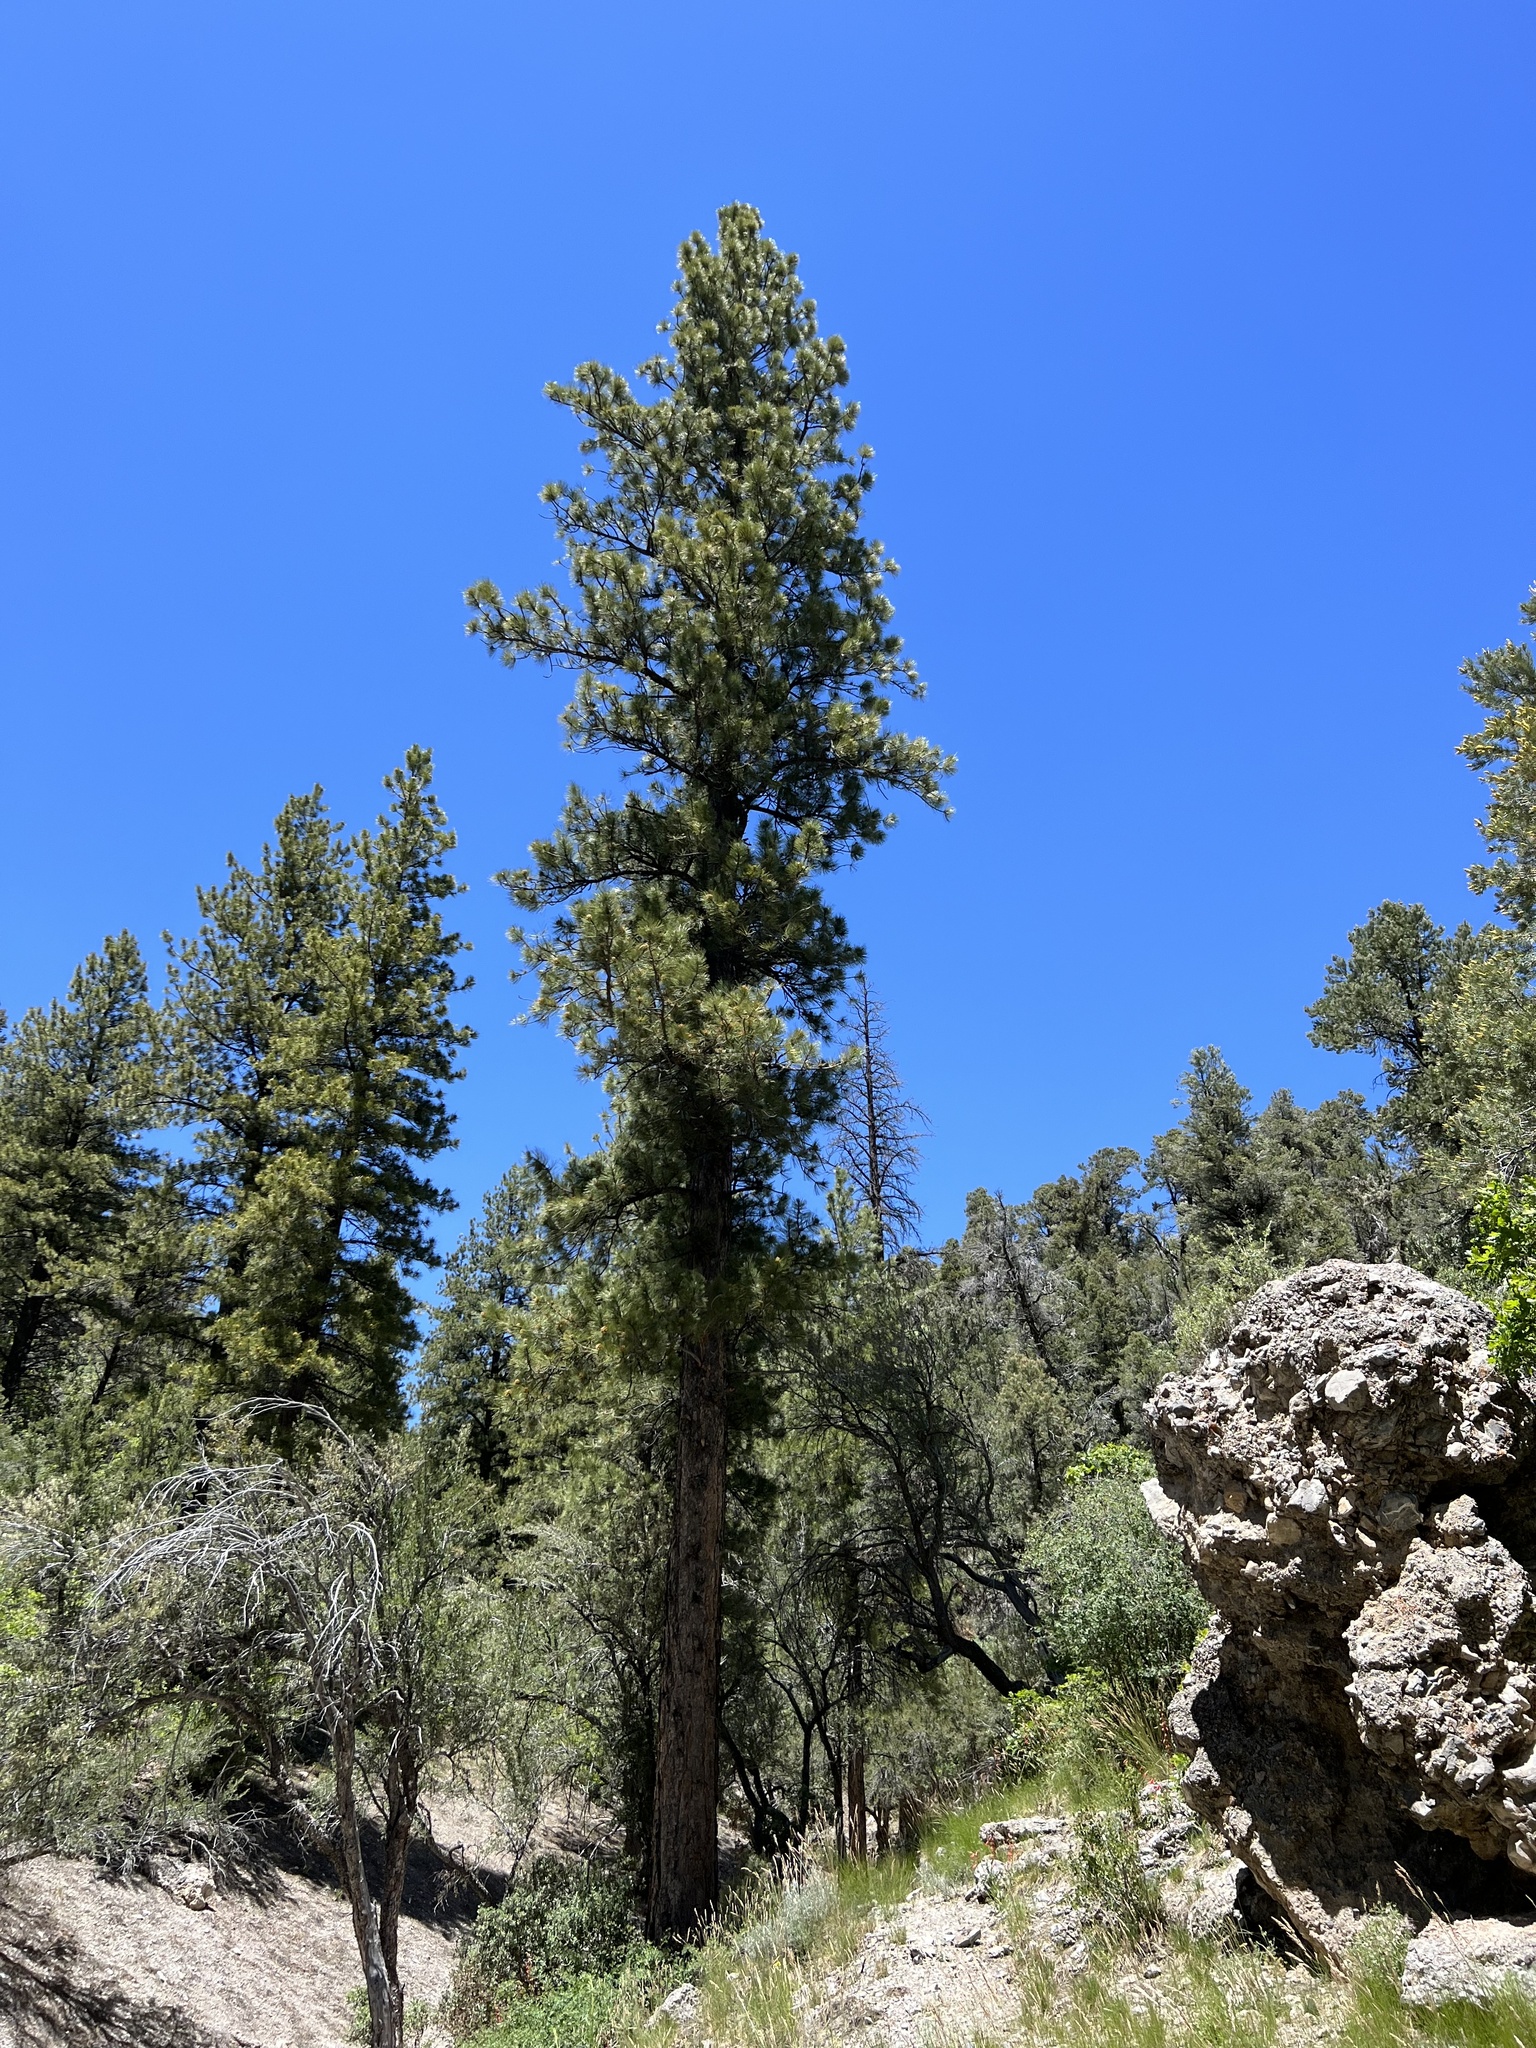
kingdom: Plantae
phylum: Tracheophyta
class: Pinopsida
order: Pinales
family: Pinaceae
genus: Pinus
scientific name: Pinus ponderosa
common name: Western yellow-pine
